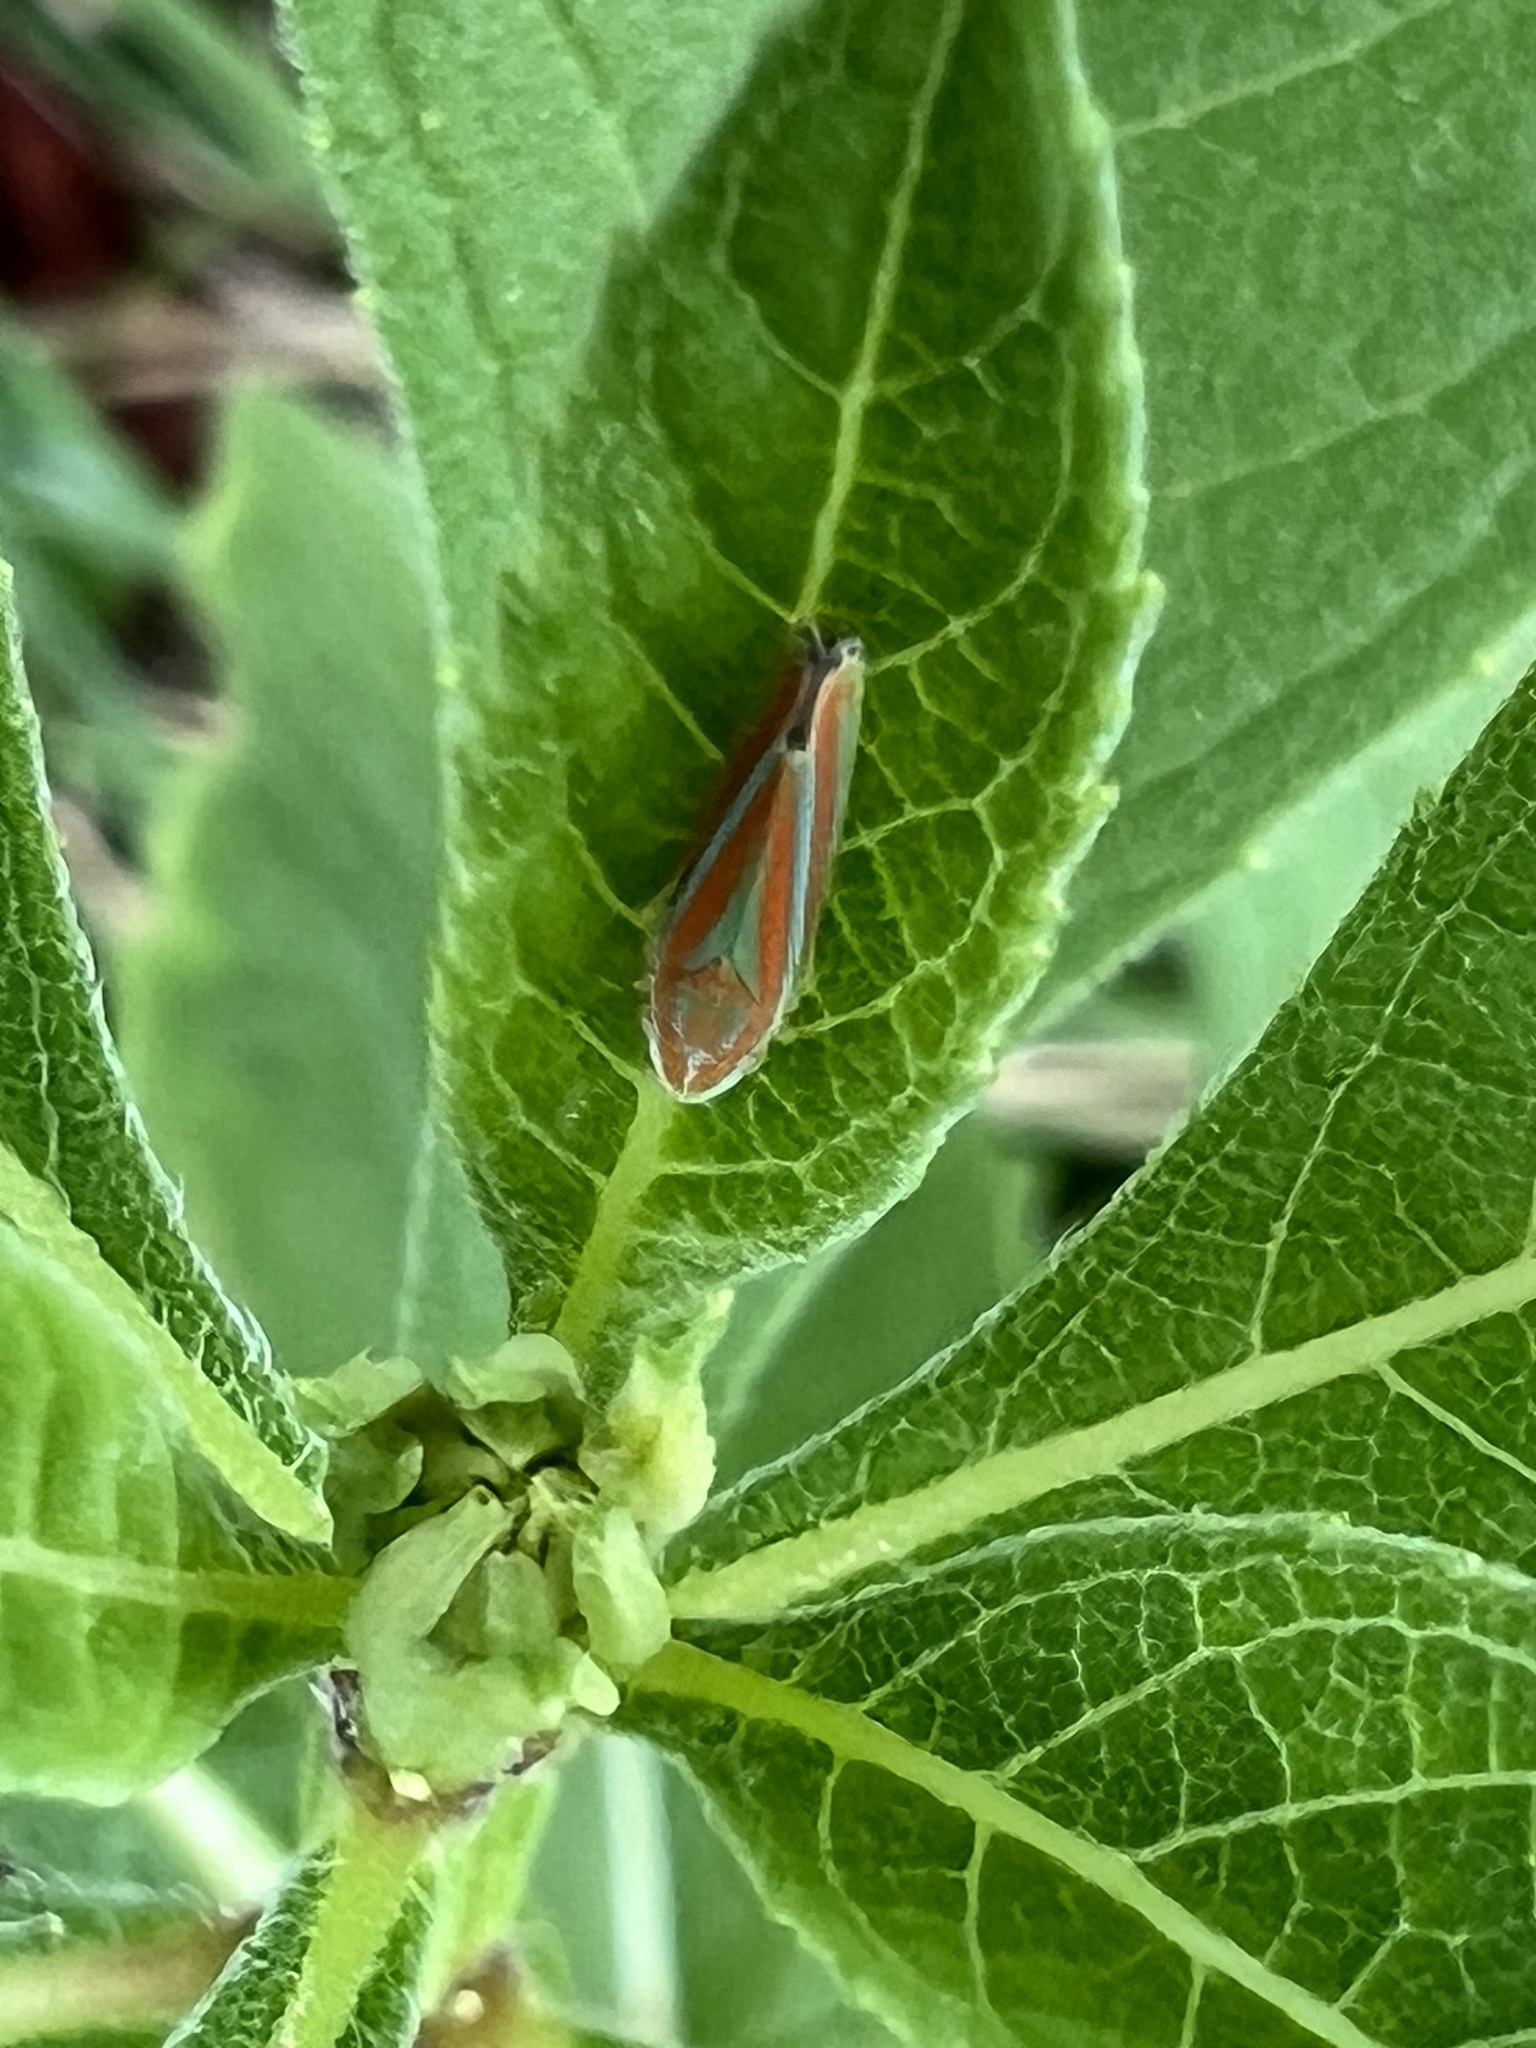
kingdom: Animalia
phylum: Arthropoda
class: Insecta
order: Hemiptera
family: Cicadellidae
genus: Graphocephala
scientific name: Graphocephala versuta
